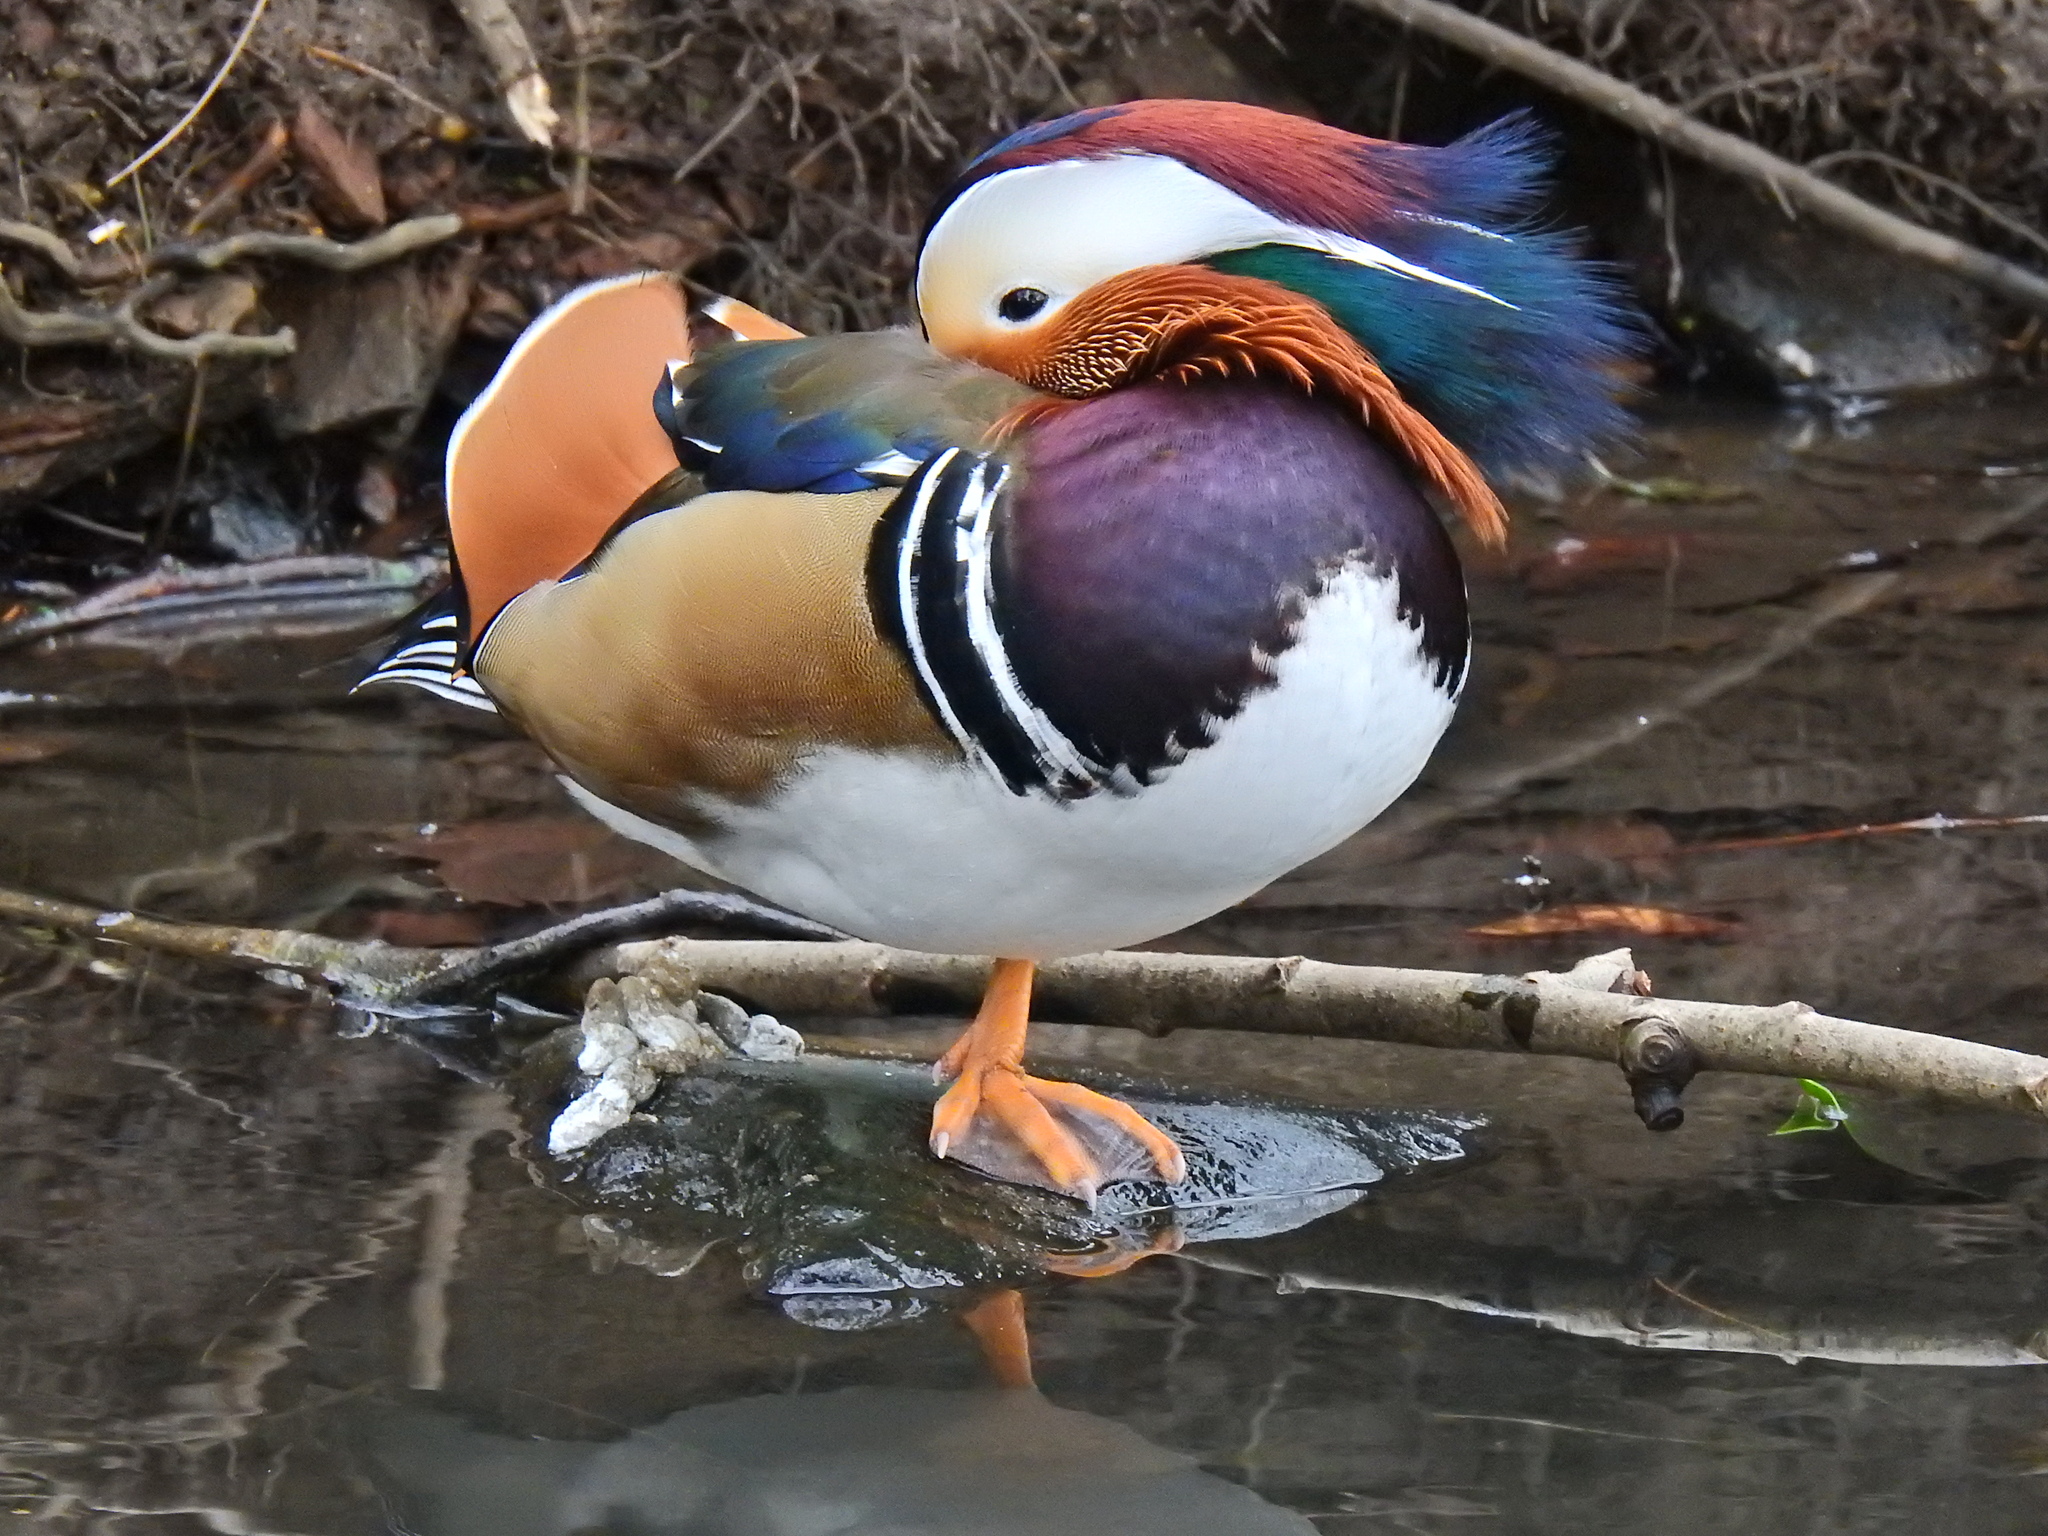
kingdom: Animalia
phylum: Chordata
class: Aves
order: Anseriformes
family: Anatidae
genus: Aix
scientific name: Aix galericulata
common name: Mandarin duck
